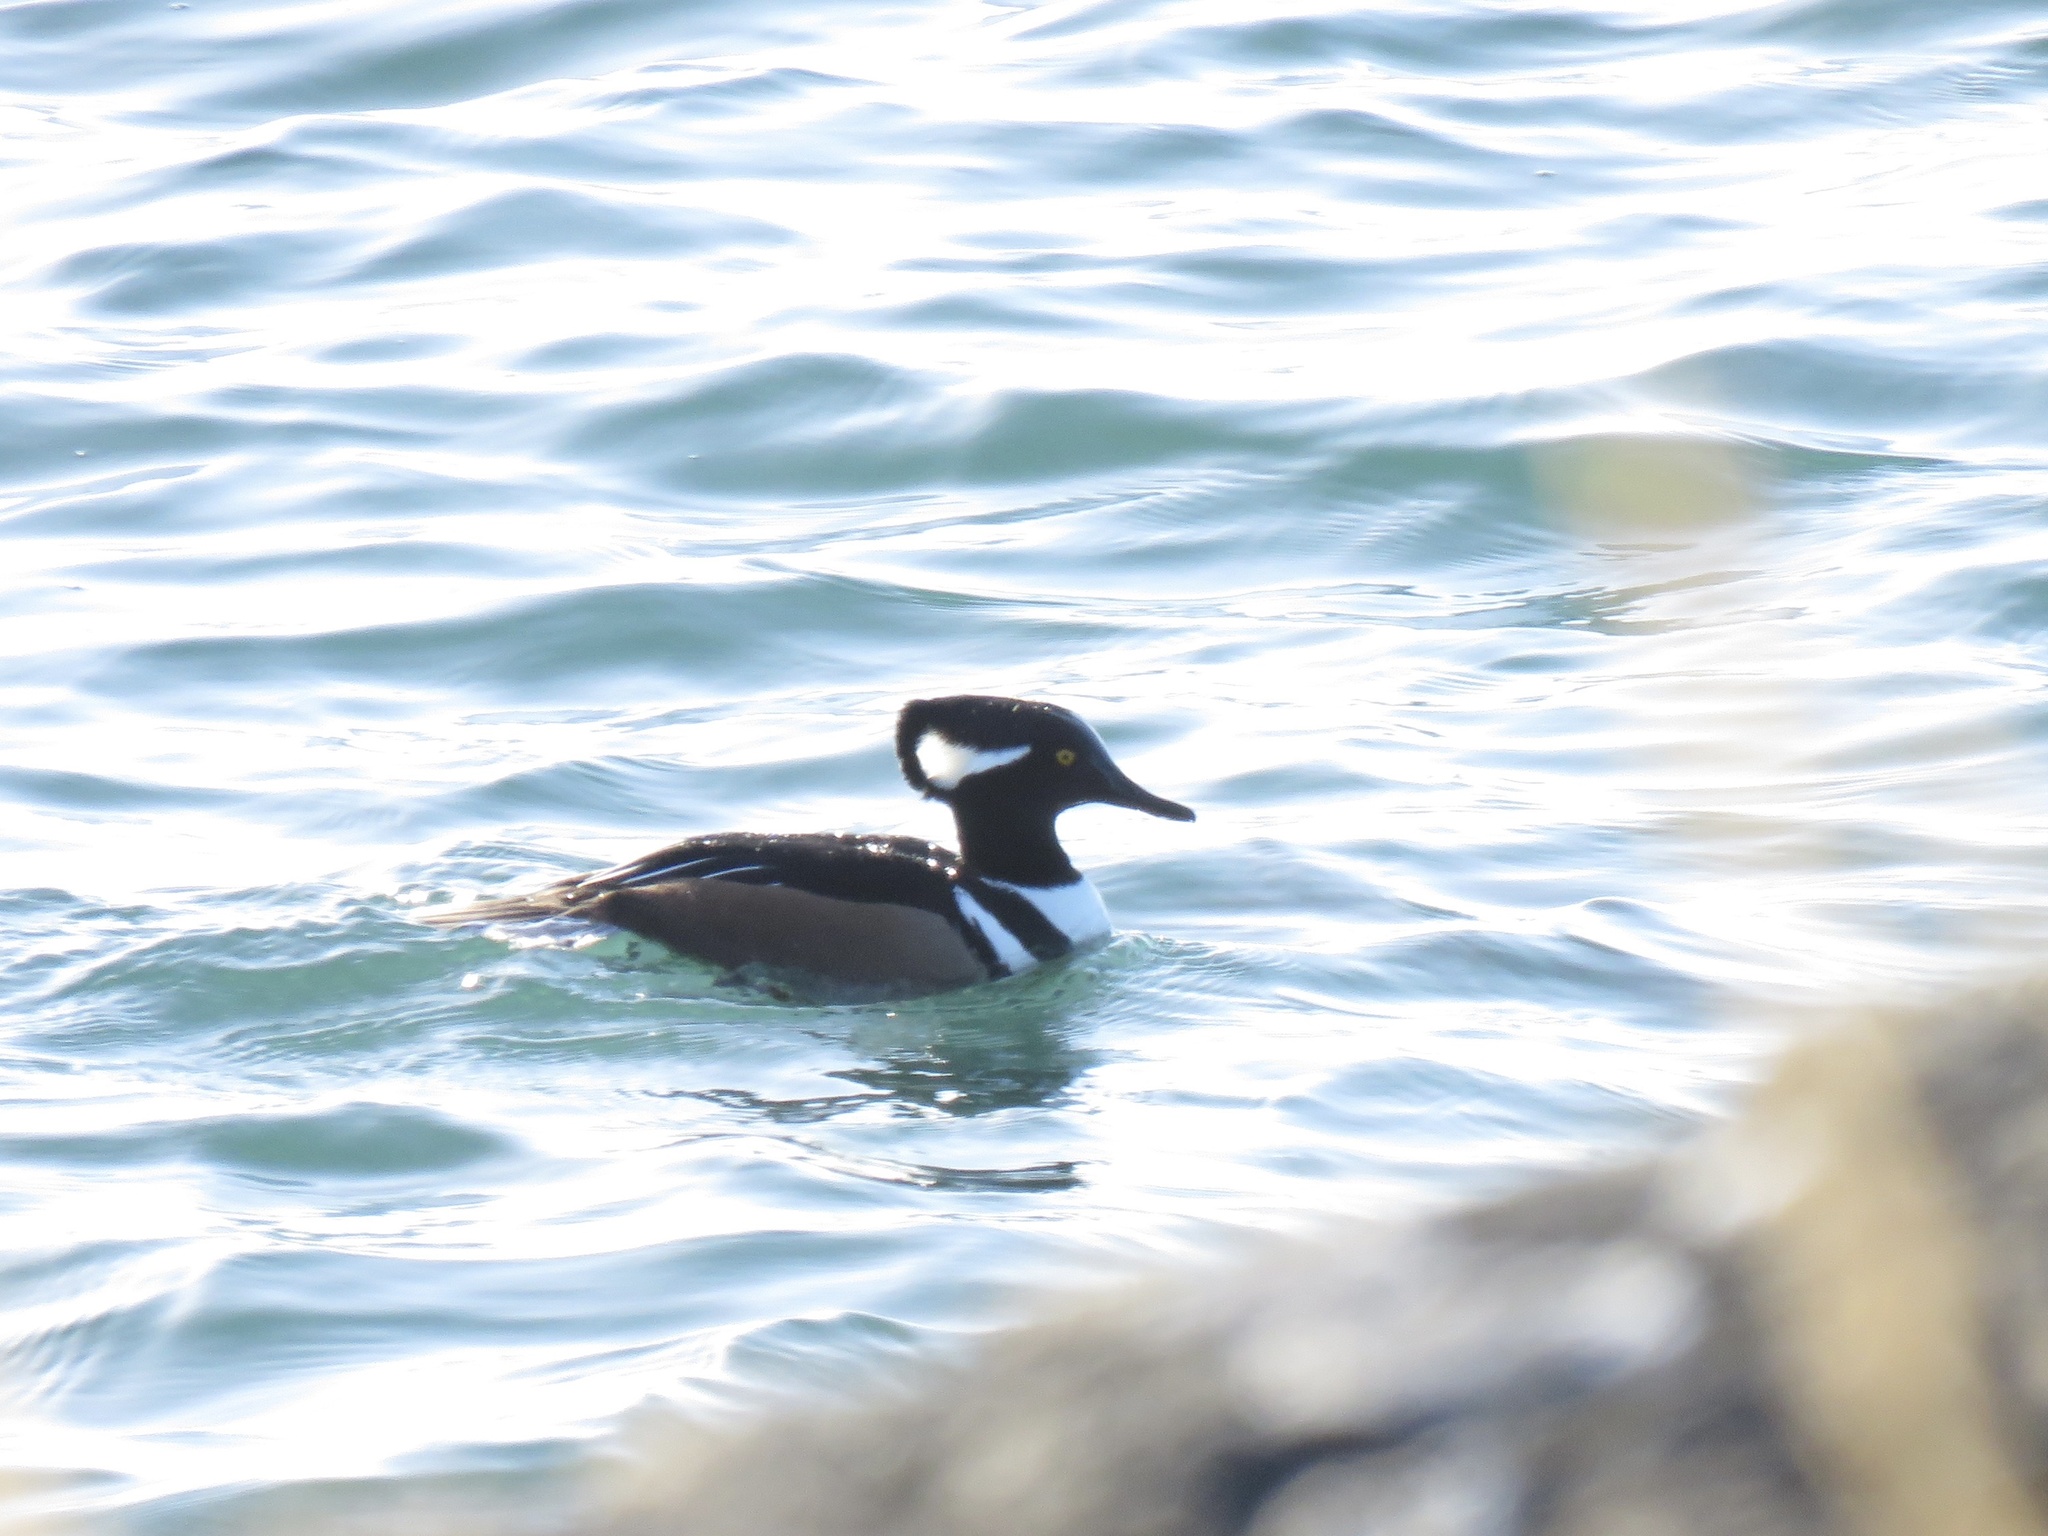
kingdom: Animalia
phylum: Chordata
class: Aves
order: Anseriformes
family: Anatidae
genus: Lophodytes
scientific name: Lophodytes cucullatus
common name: Hooded merganser
